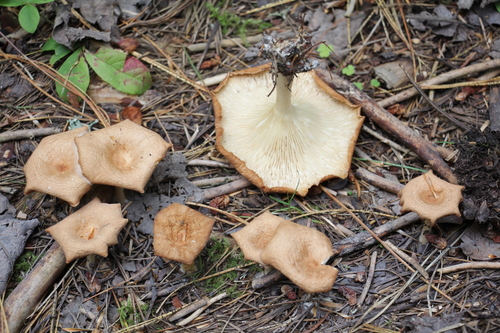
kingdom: Fungi
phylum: Basidiomycota
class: Agaricomycetes
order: Agaricales
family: Tricholomataceae
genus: Infundibulicybe
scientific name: Infundibulicybe gibba
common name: Common funnel
